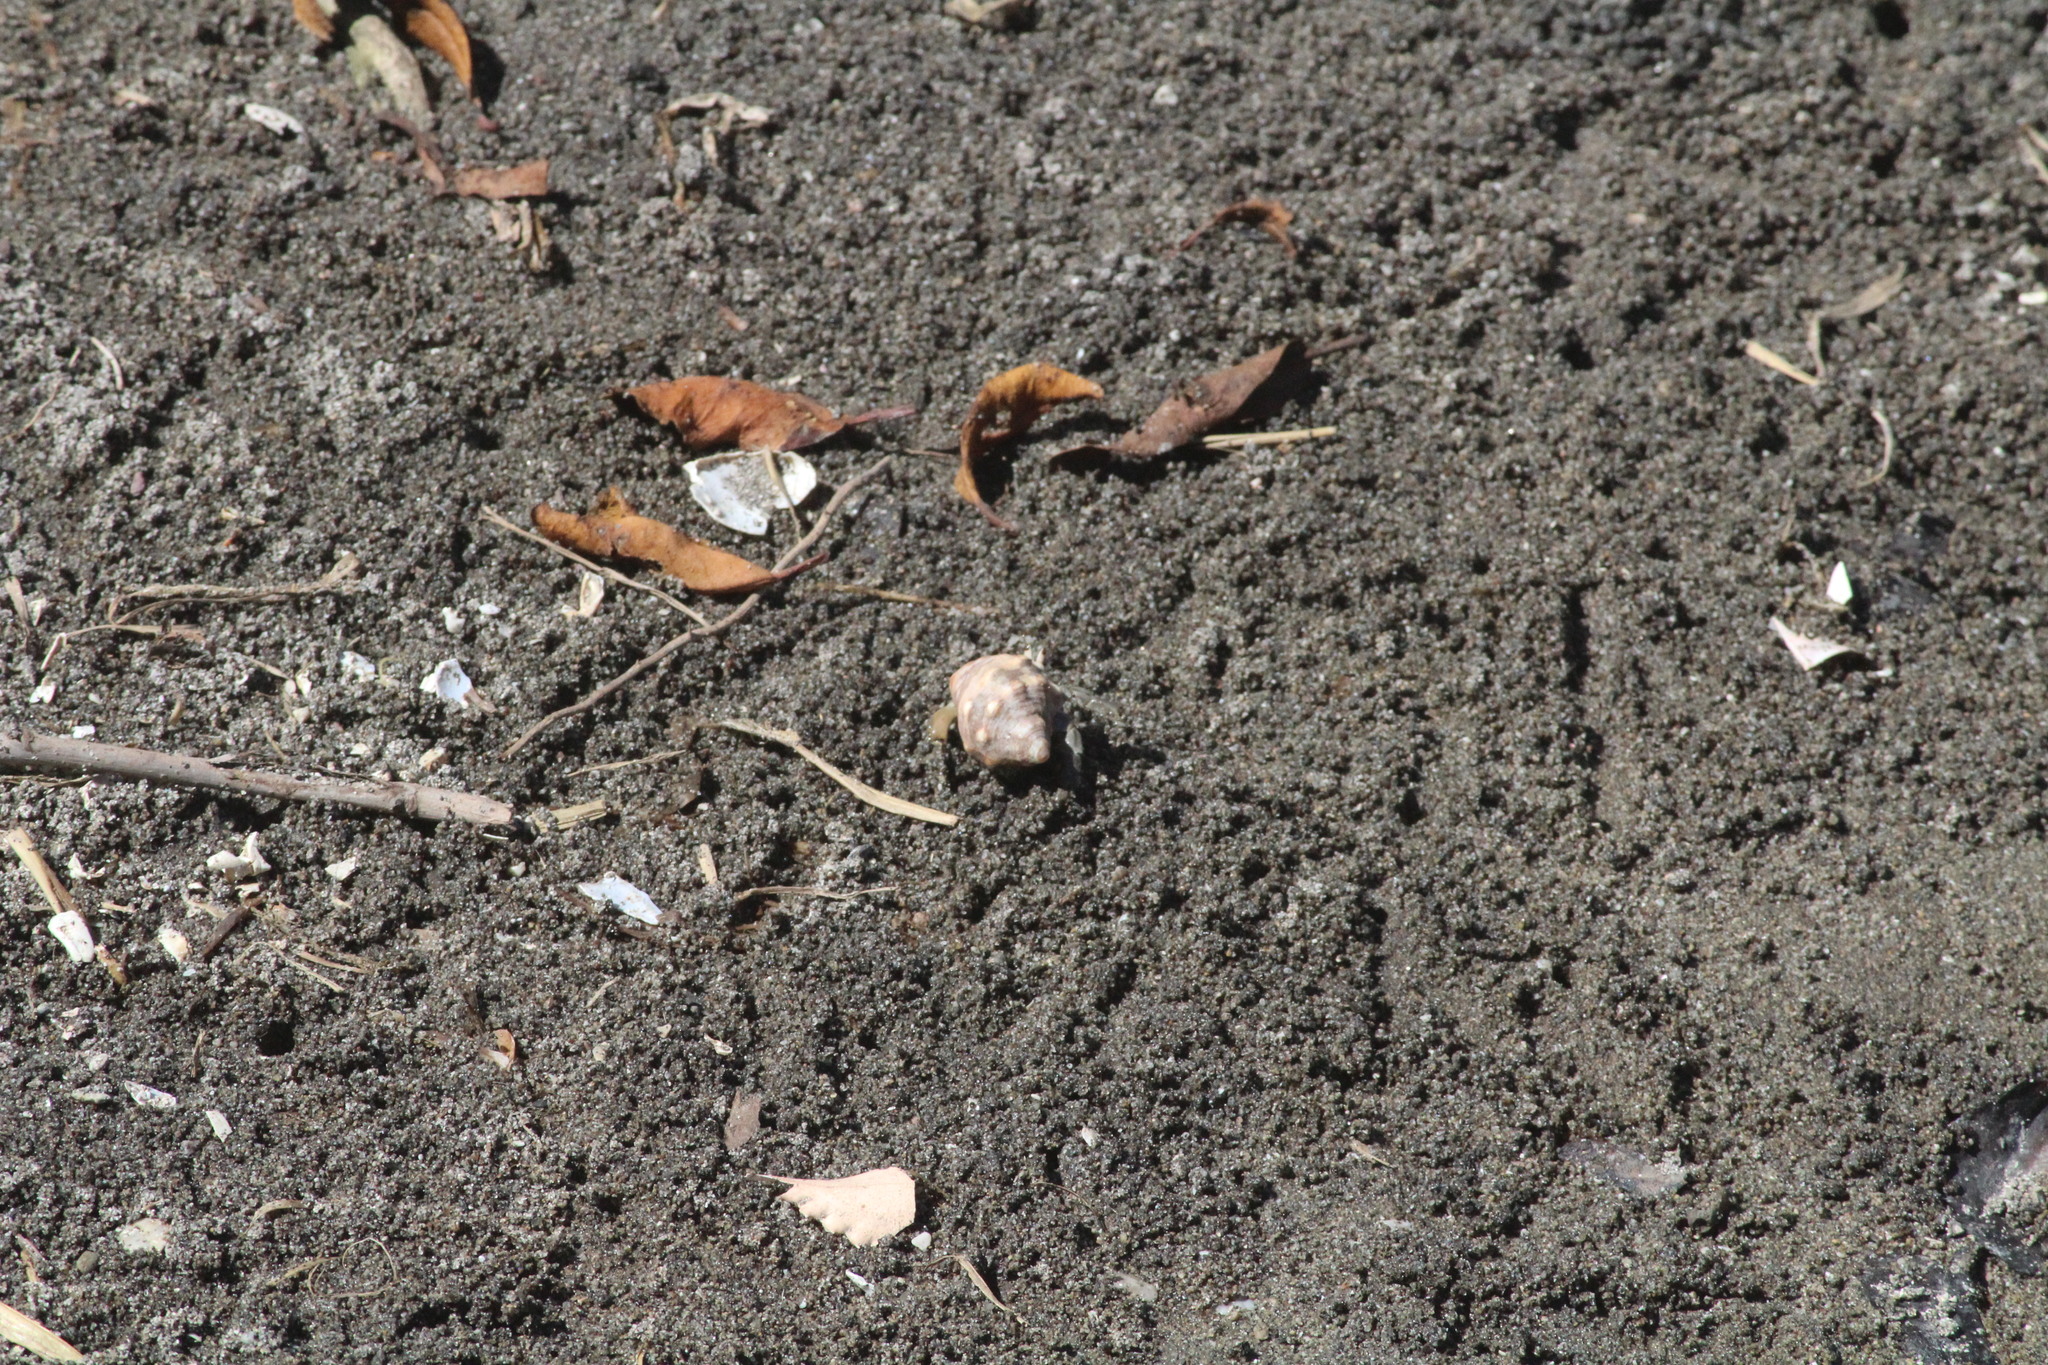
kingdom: Animalia
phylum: Arthropoda
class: Malacostraca
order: Decapoda
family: Coenobitidae
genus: Coenobita
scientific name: Coenobita compressus
